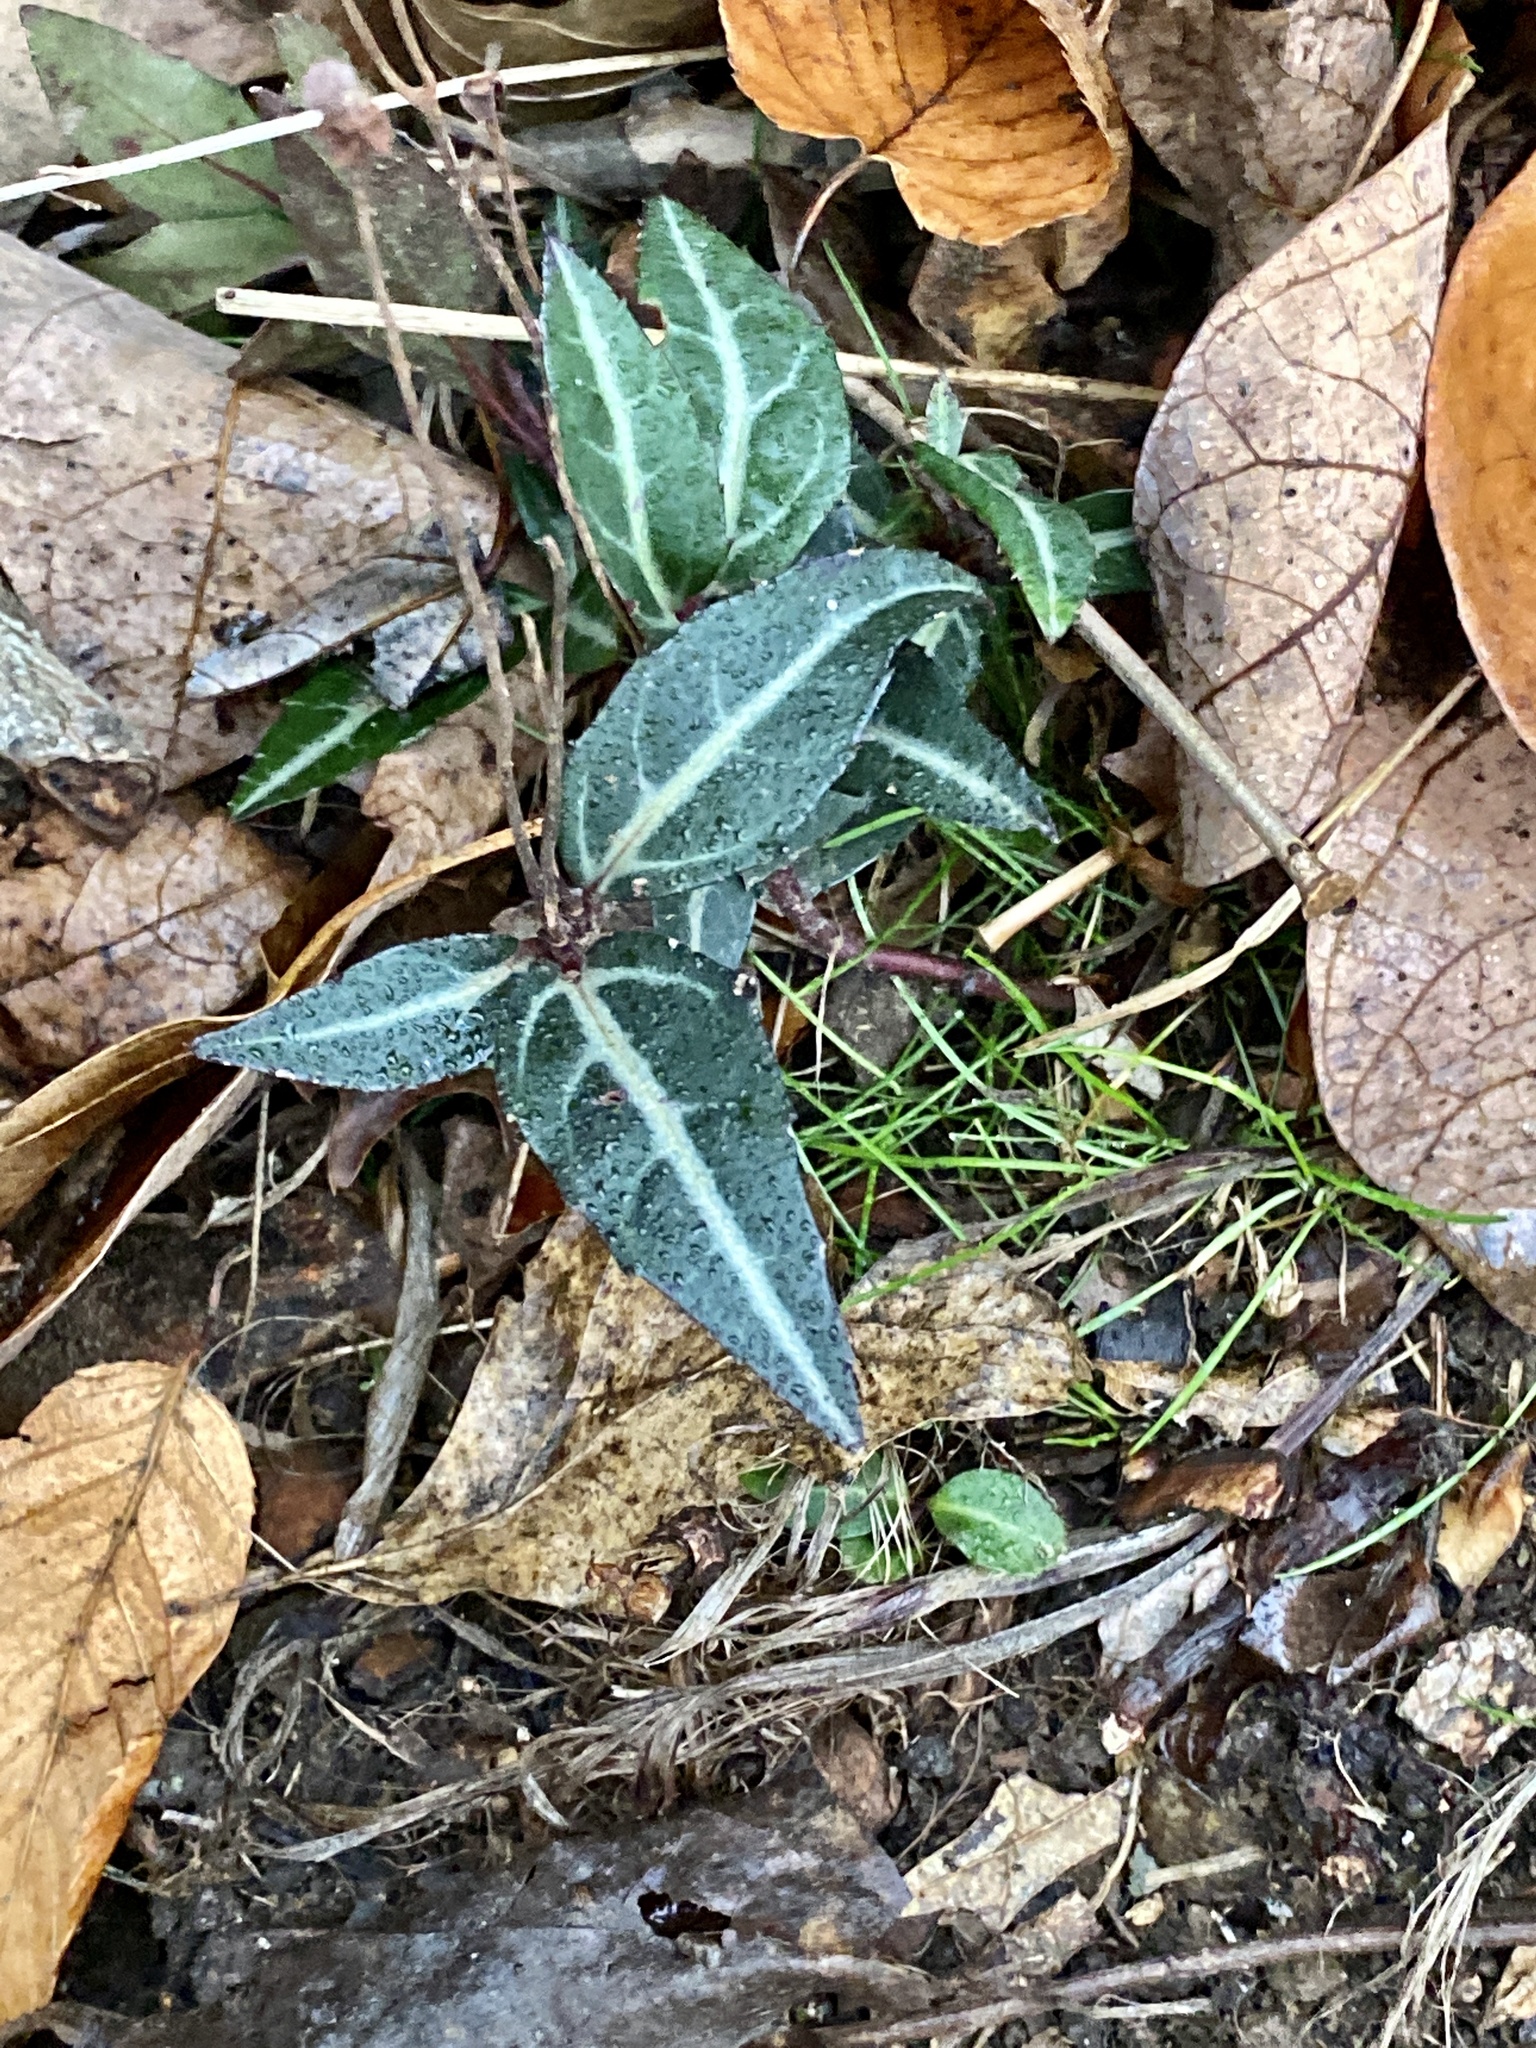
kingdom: Plantae
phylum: Tracheophyta
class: Magnoliopsida
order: Ericales
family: Ericaceae
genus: Chimaphila
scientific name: Chimaphila maculata
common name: Spotted pipsissewa
